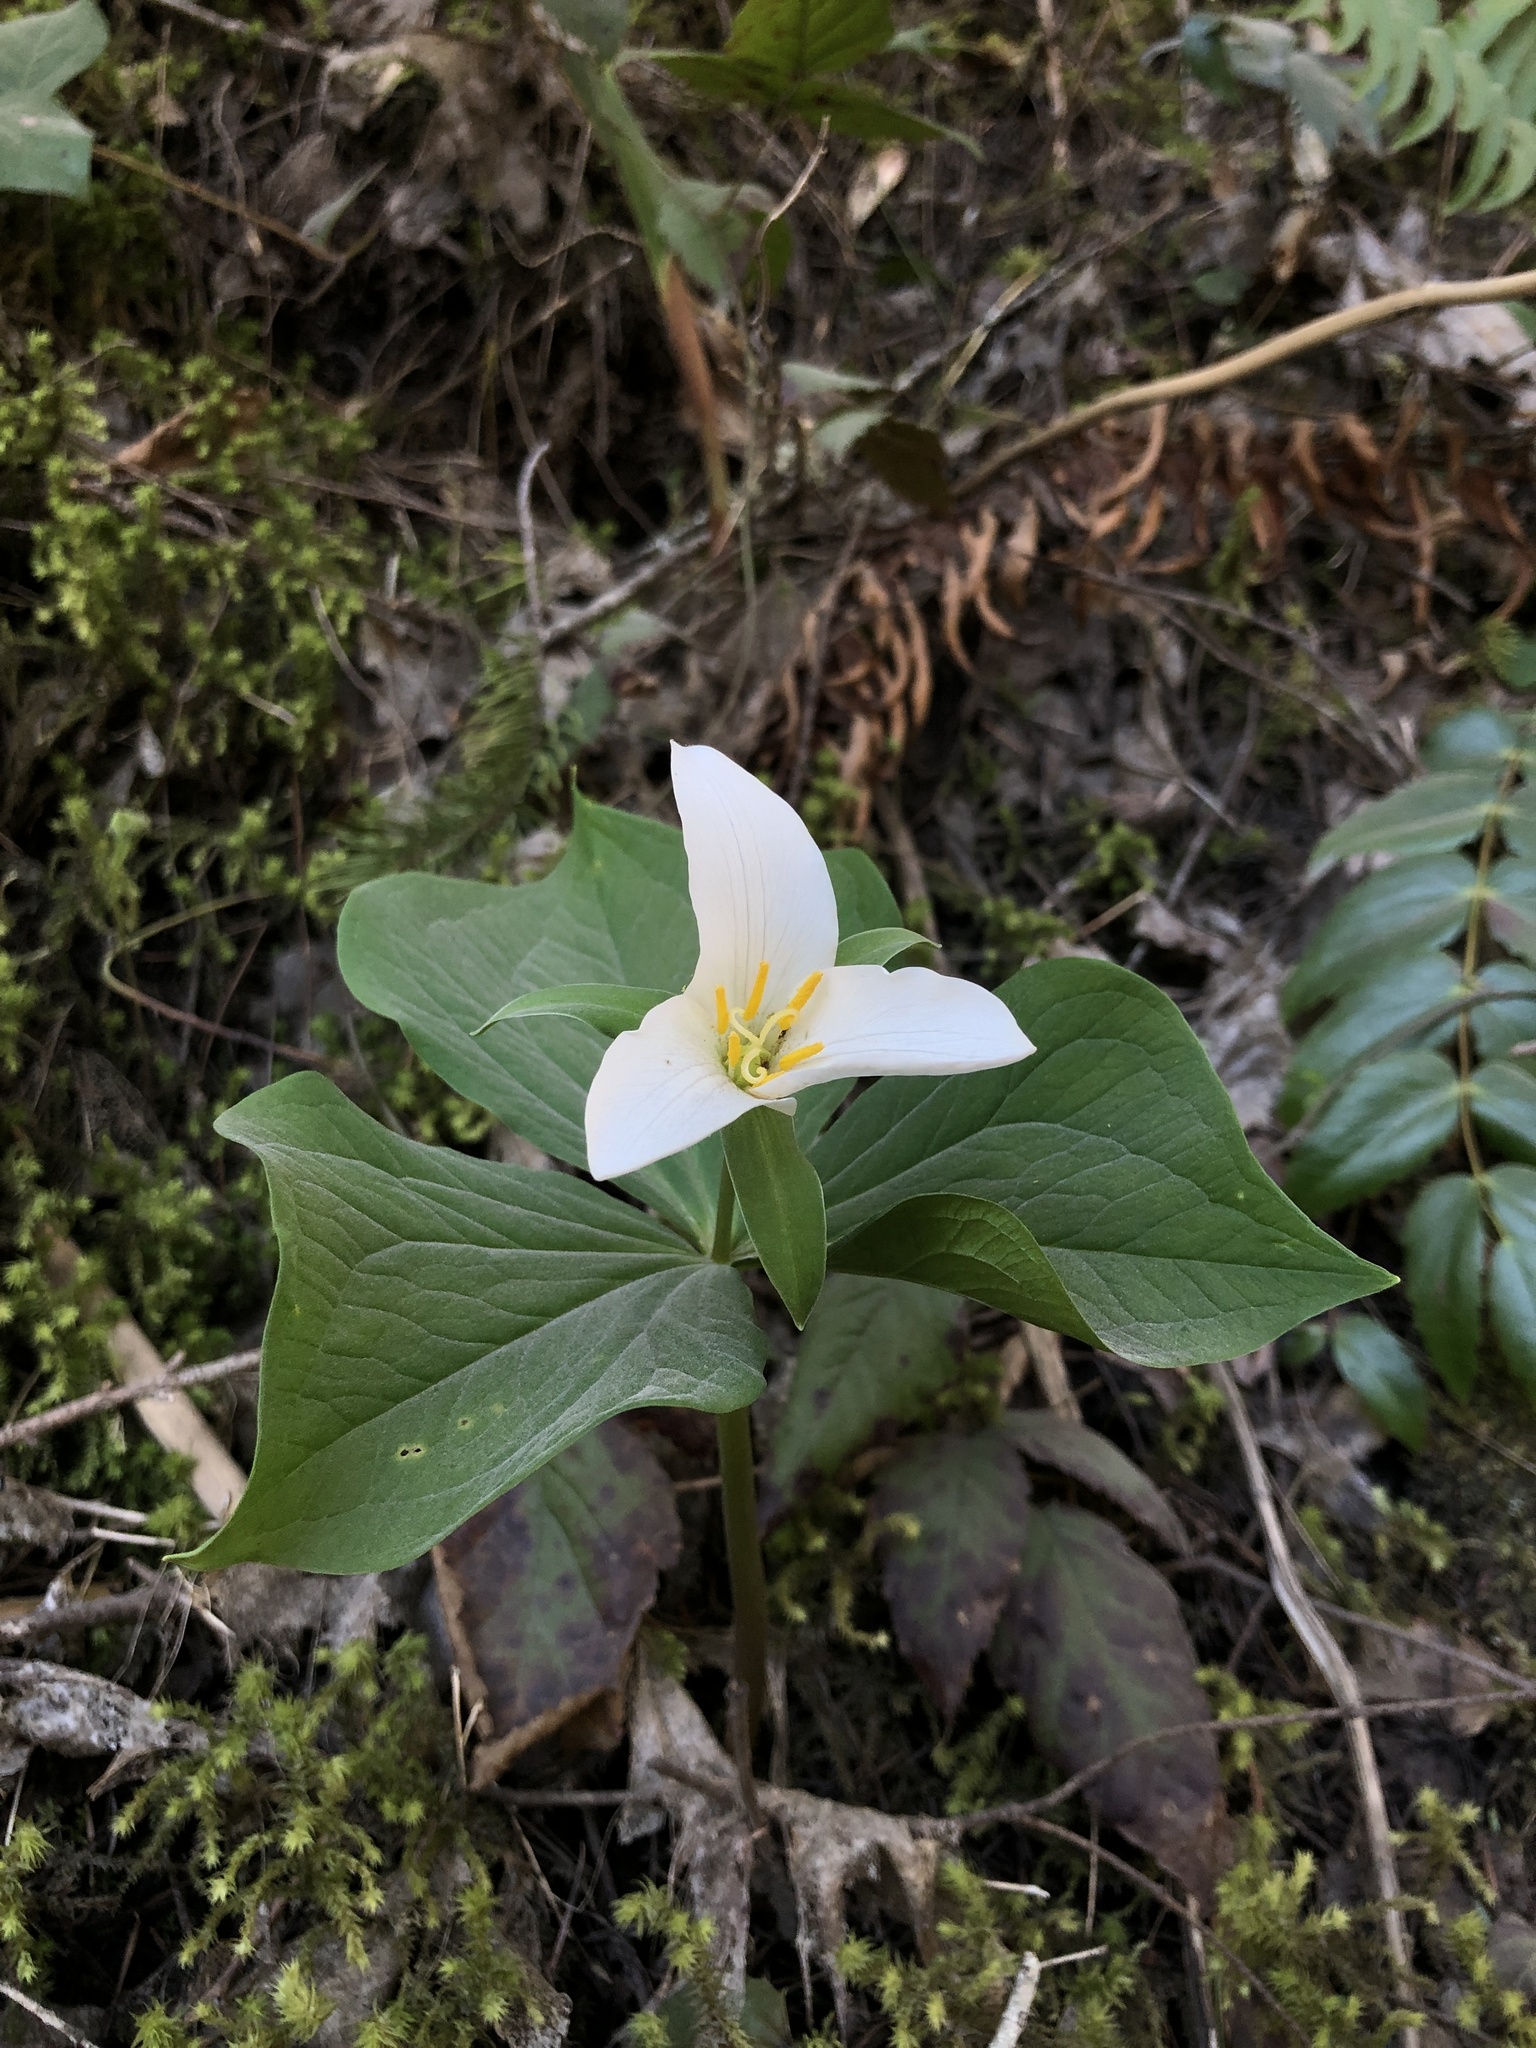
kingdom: Plantae
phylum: Tracheophyta
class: Liliopsida
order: Liliales
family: Melanthiaceae
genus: Trillium
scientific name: Trillium ovatum
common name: Pacific trillium
